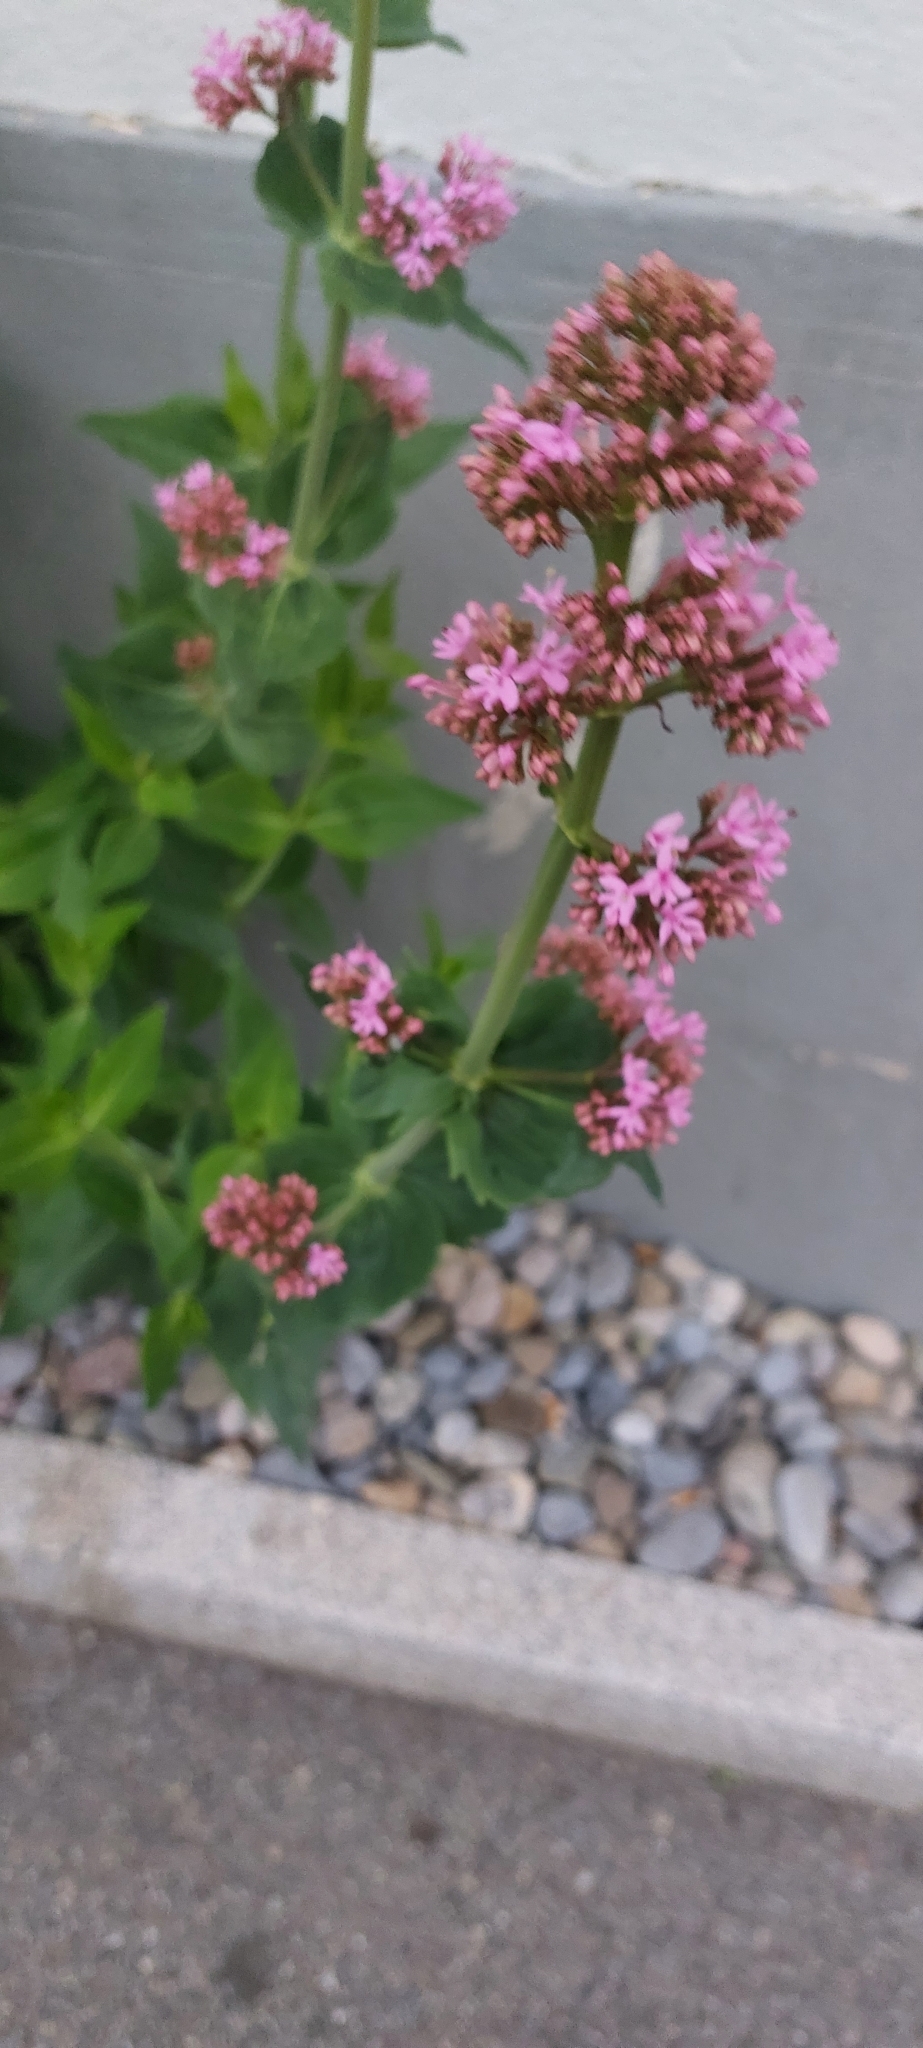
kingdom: Plantae
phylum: Tracheophyta
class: Magnoliopsida
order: Dipsacales
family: Caprifoliaceae
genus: Centranthus
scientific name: Centranthus ruber
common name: Red valerian
